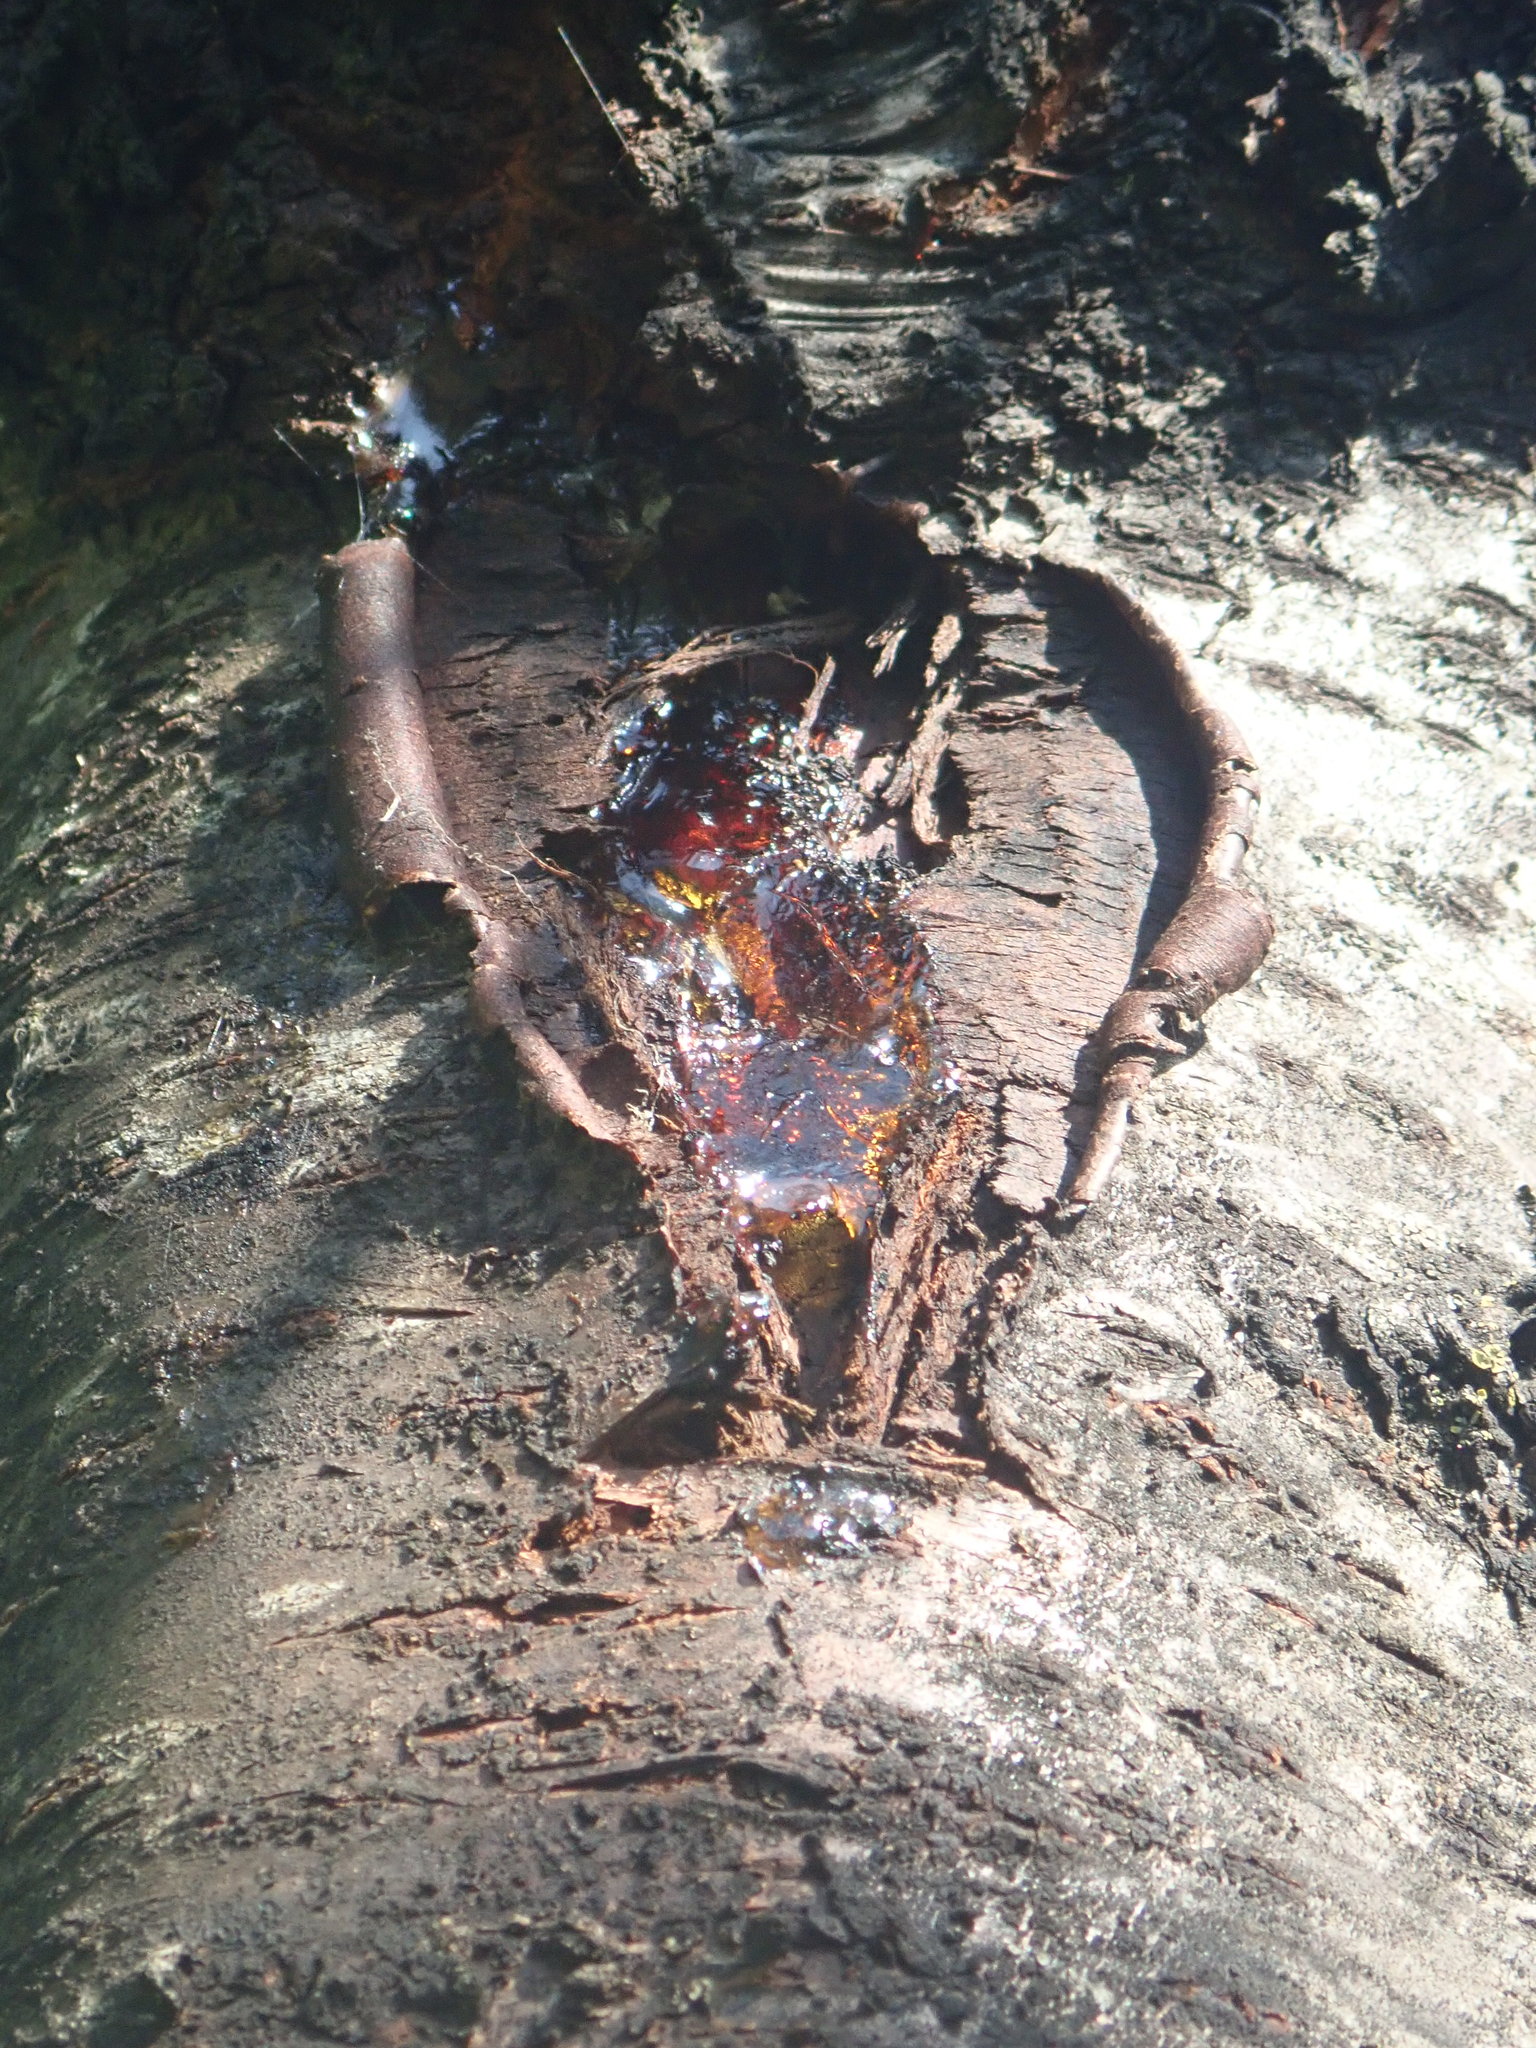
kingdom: Plantae
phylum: Tracheophyta
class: Magnoliopsida
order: Rosales
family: Rosaceae
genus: Prunus
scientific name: Prunus avium
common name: Sweet cherry
